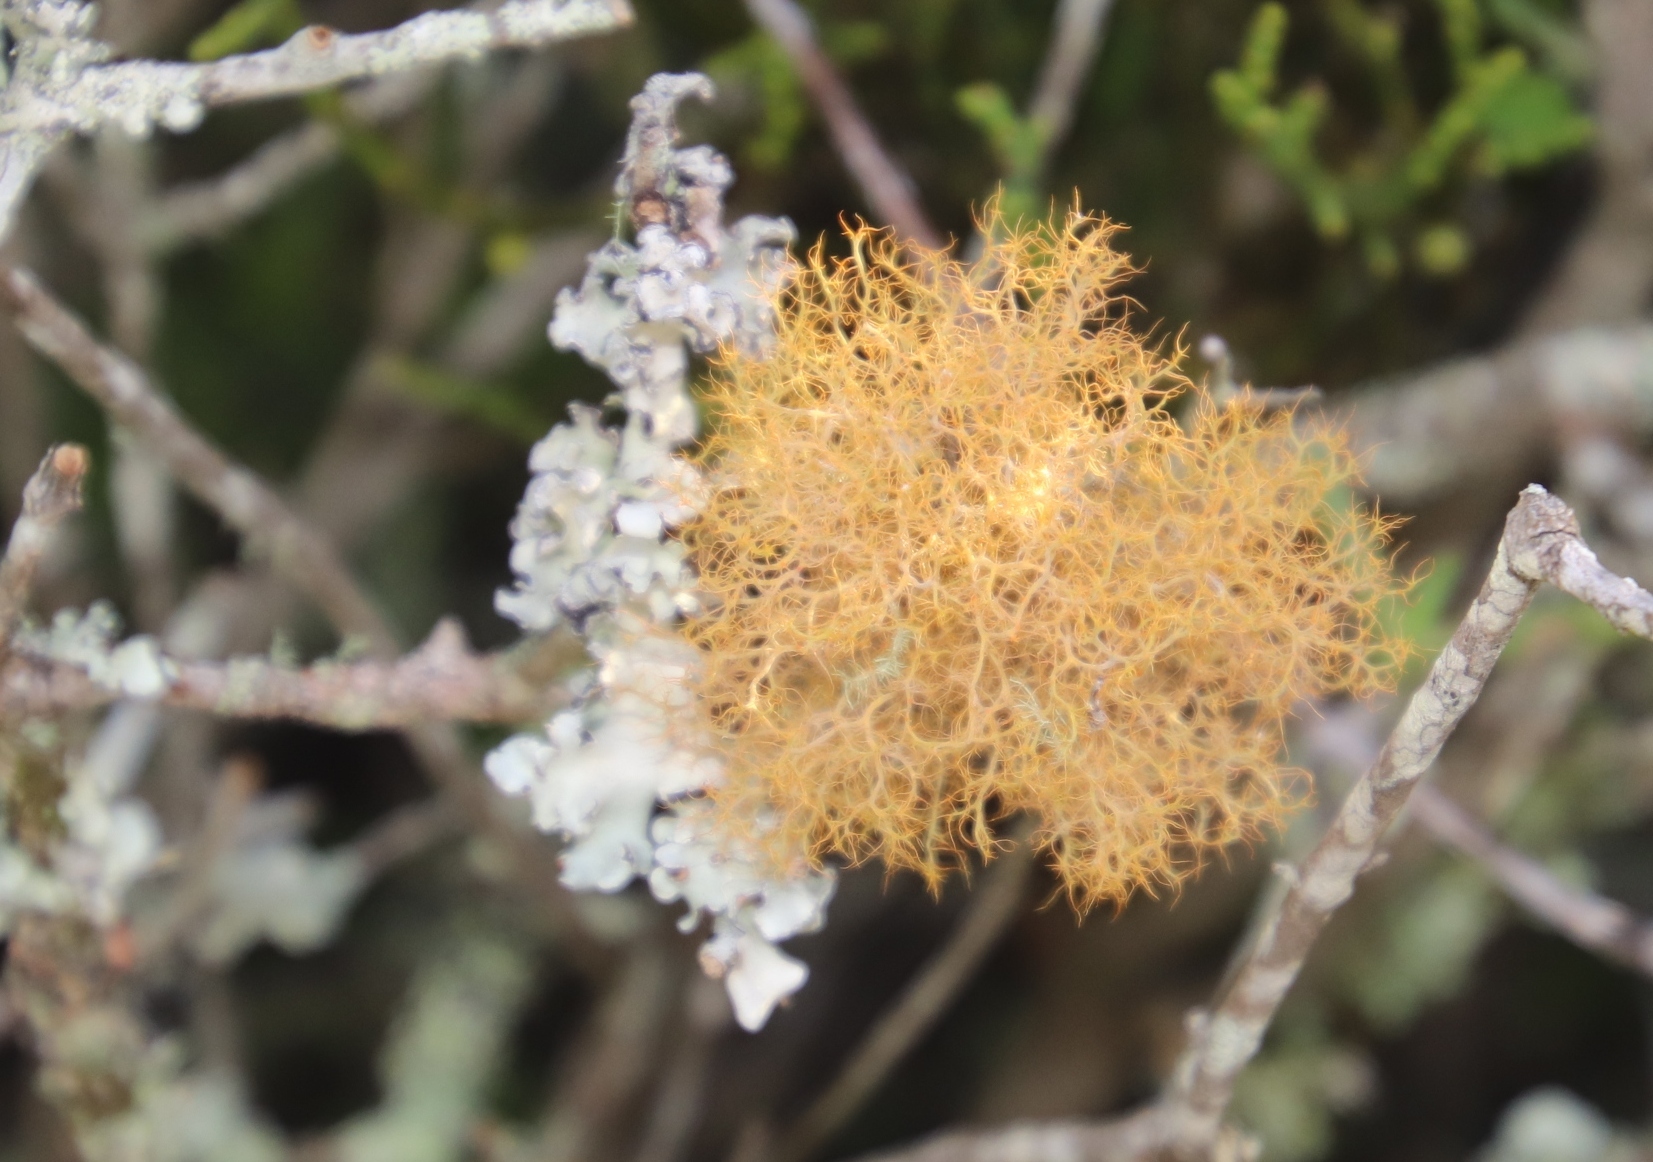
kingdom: Fungi
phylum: Ascomycota
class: Lecanoromycetes
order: Teloschistales
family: Teloschistaceae
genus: Teloschistes
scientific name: Teloschistes capensis
